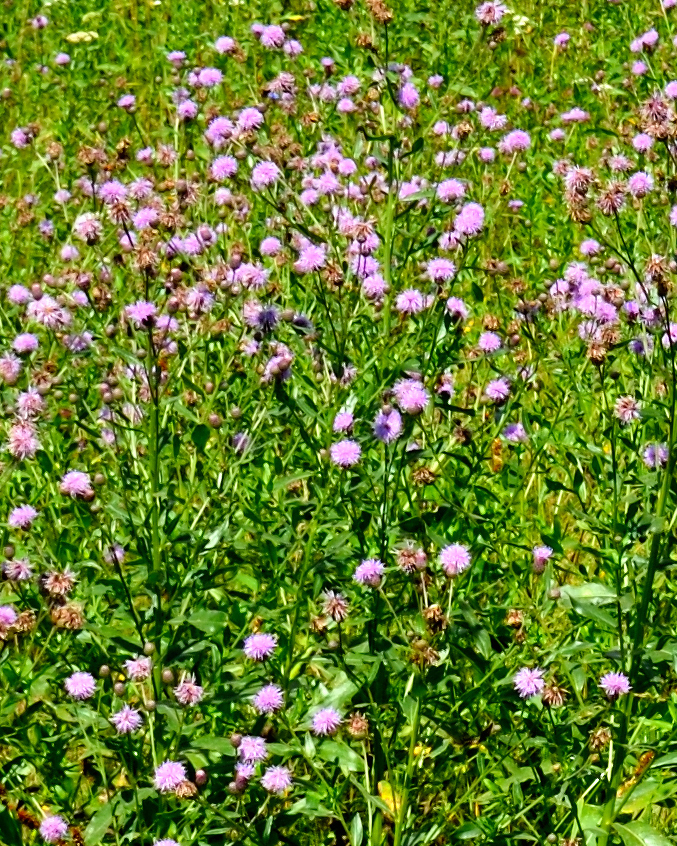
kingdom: Plantae
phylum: Tracheophyta
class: Magnoliopsida
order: Asterales
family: Asteraceae
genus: Cirsium
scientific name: Cirsium arvense
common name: Creeping thistle
